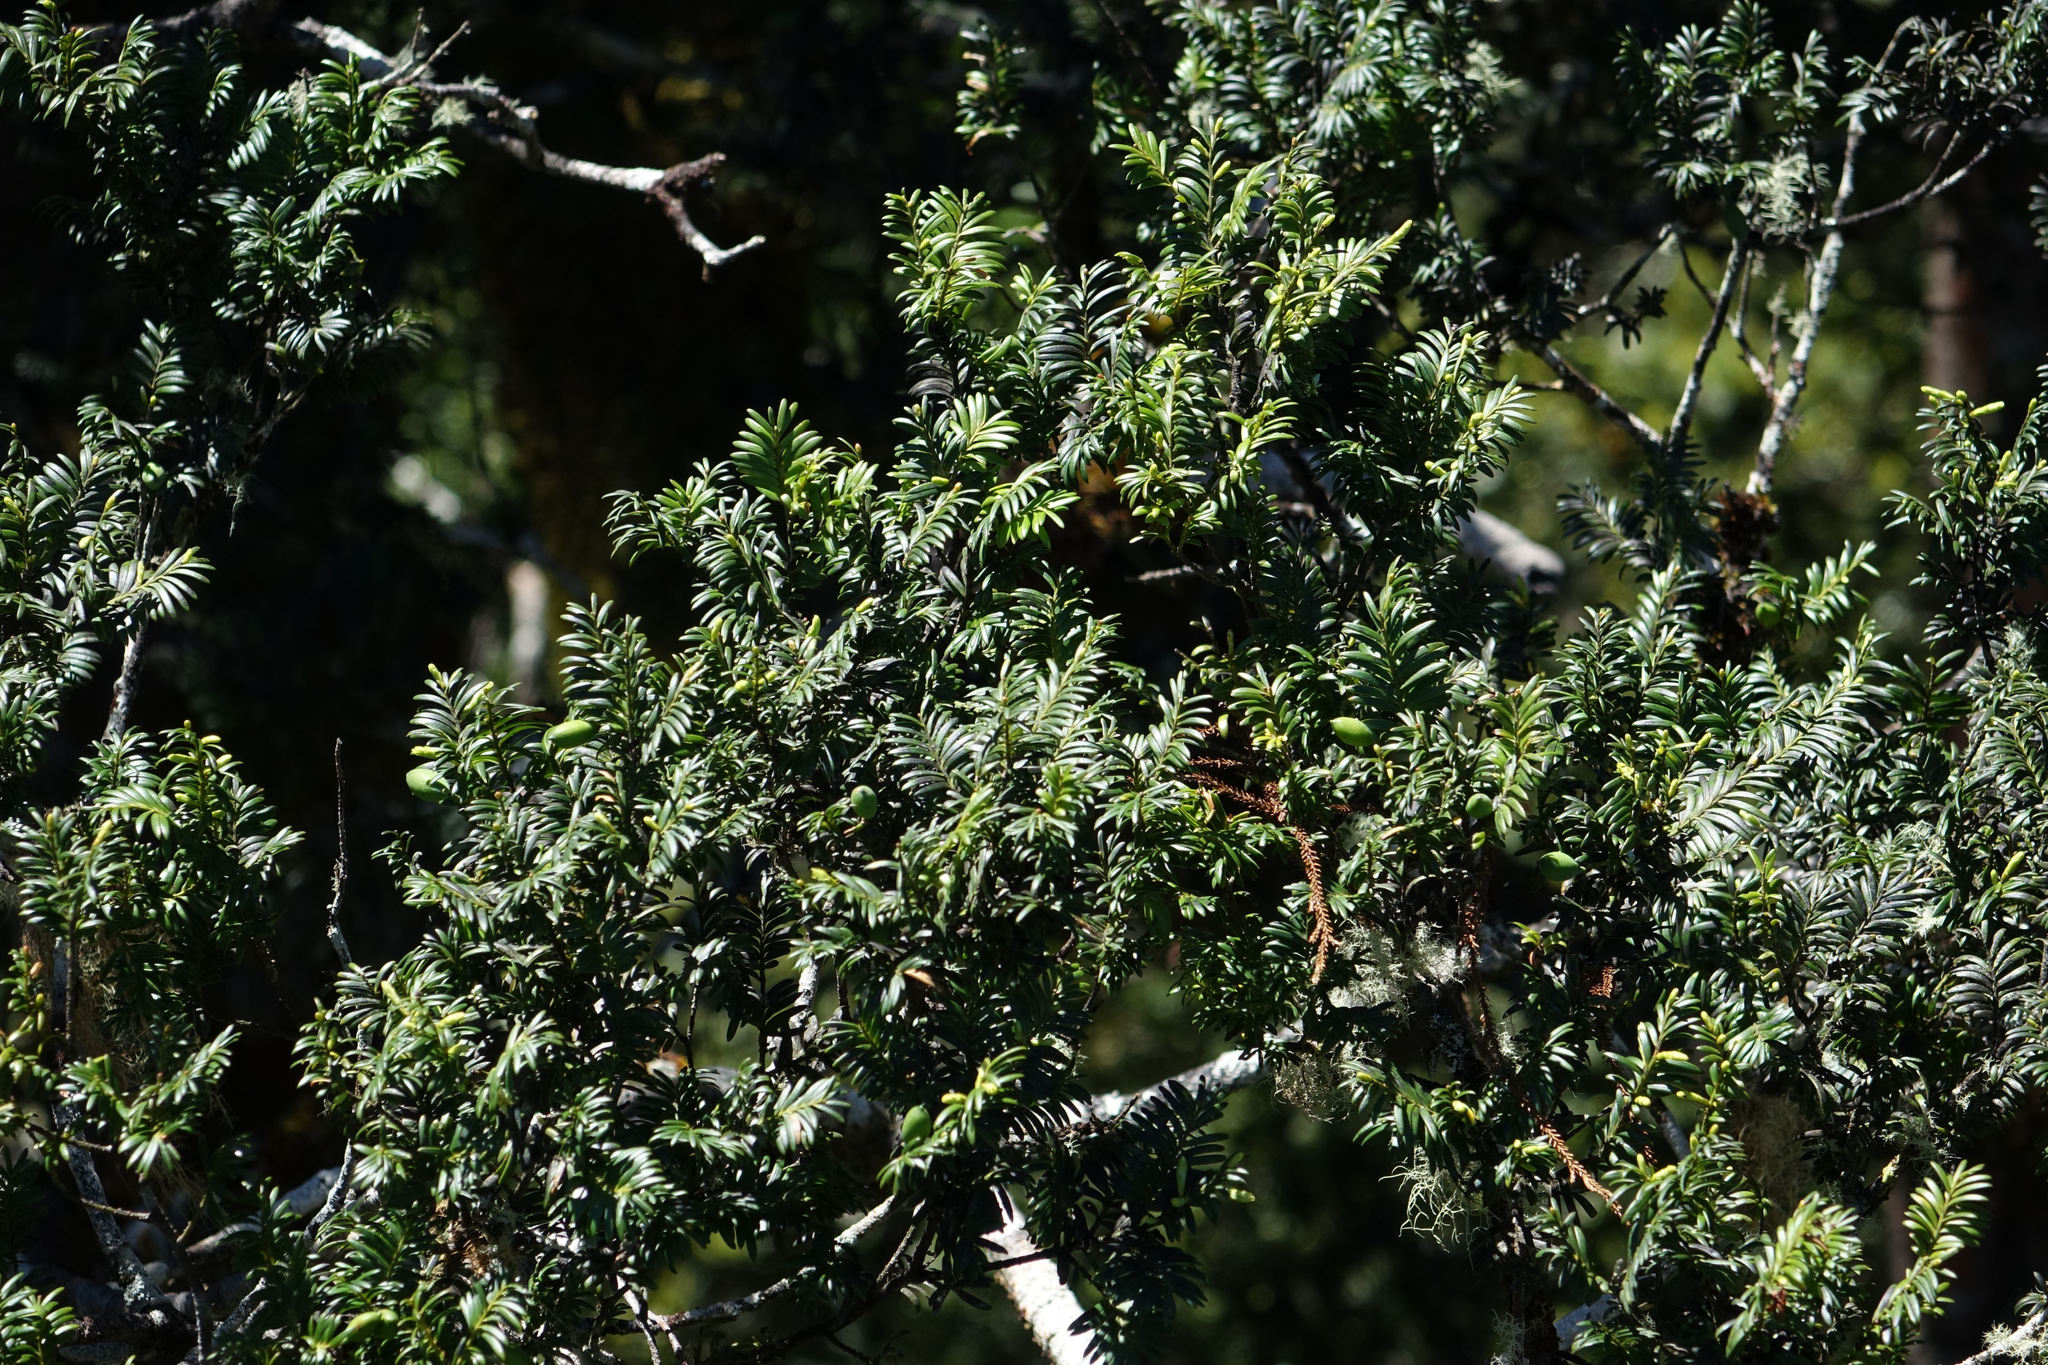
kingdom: Plantae
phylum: Tracheophyta
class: Pinopsida
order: Pinales
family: Podocarpaceae
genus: Prumnopitys
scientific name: Prumnopitys ferruginea
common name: Brown pine
